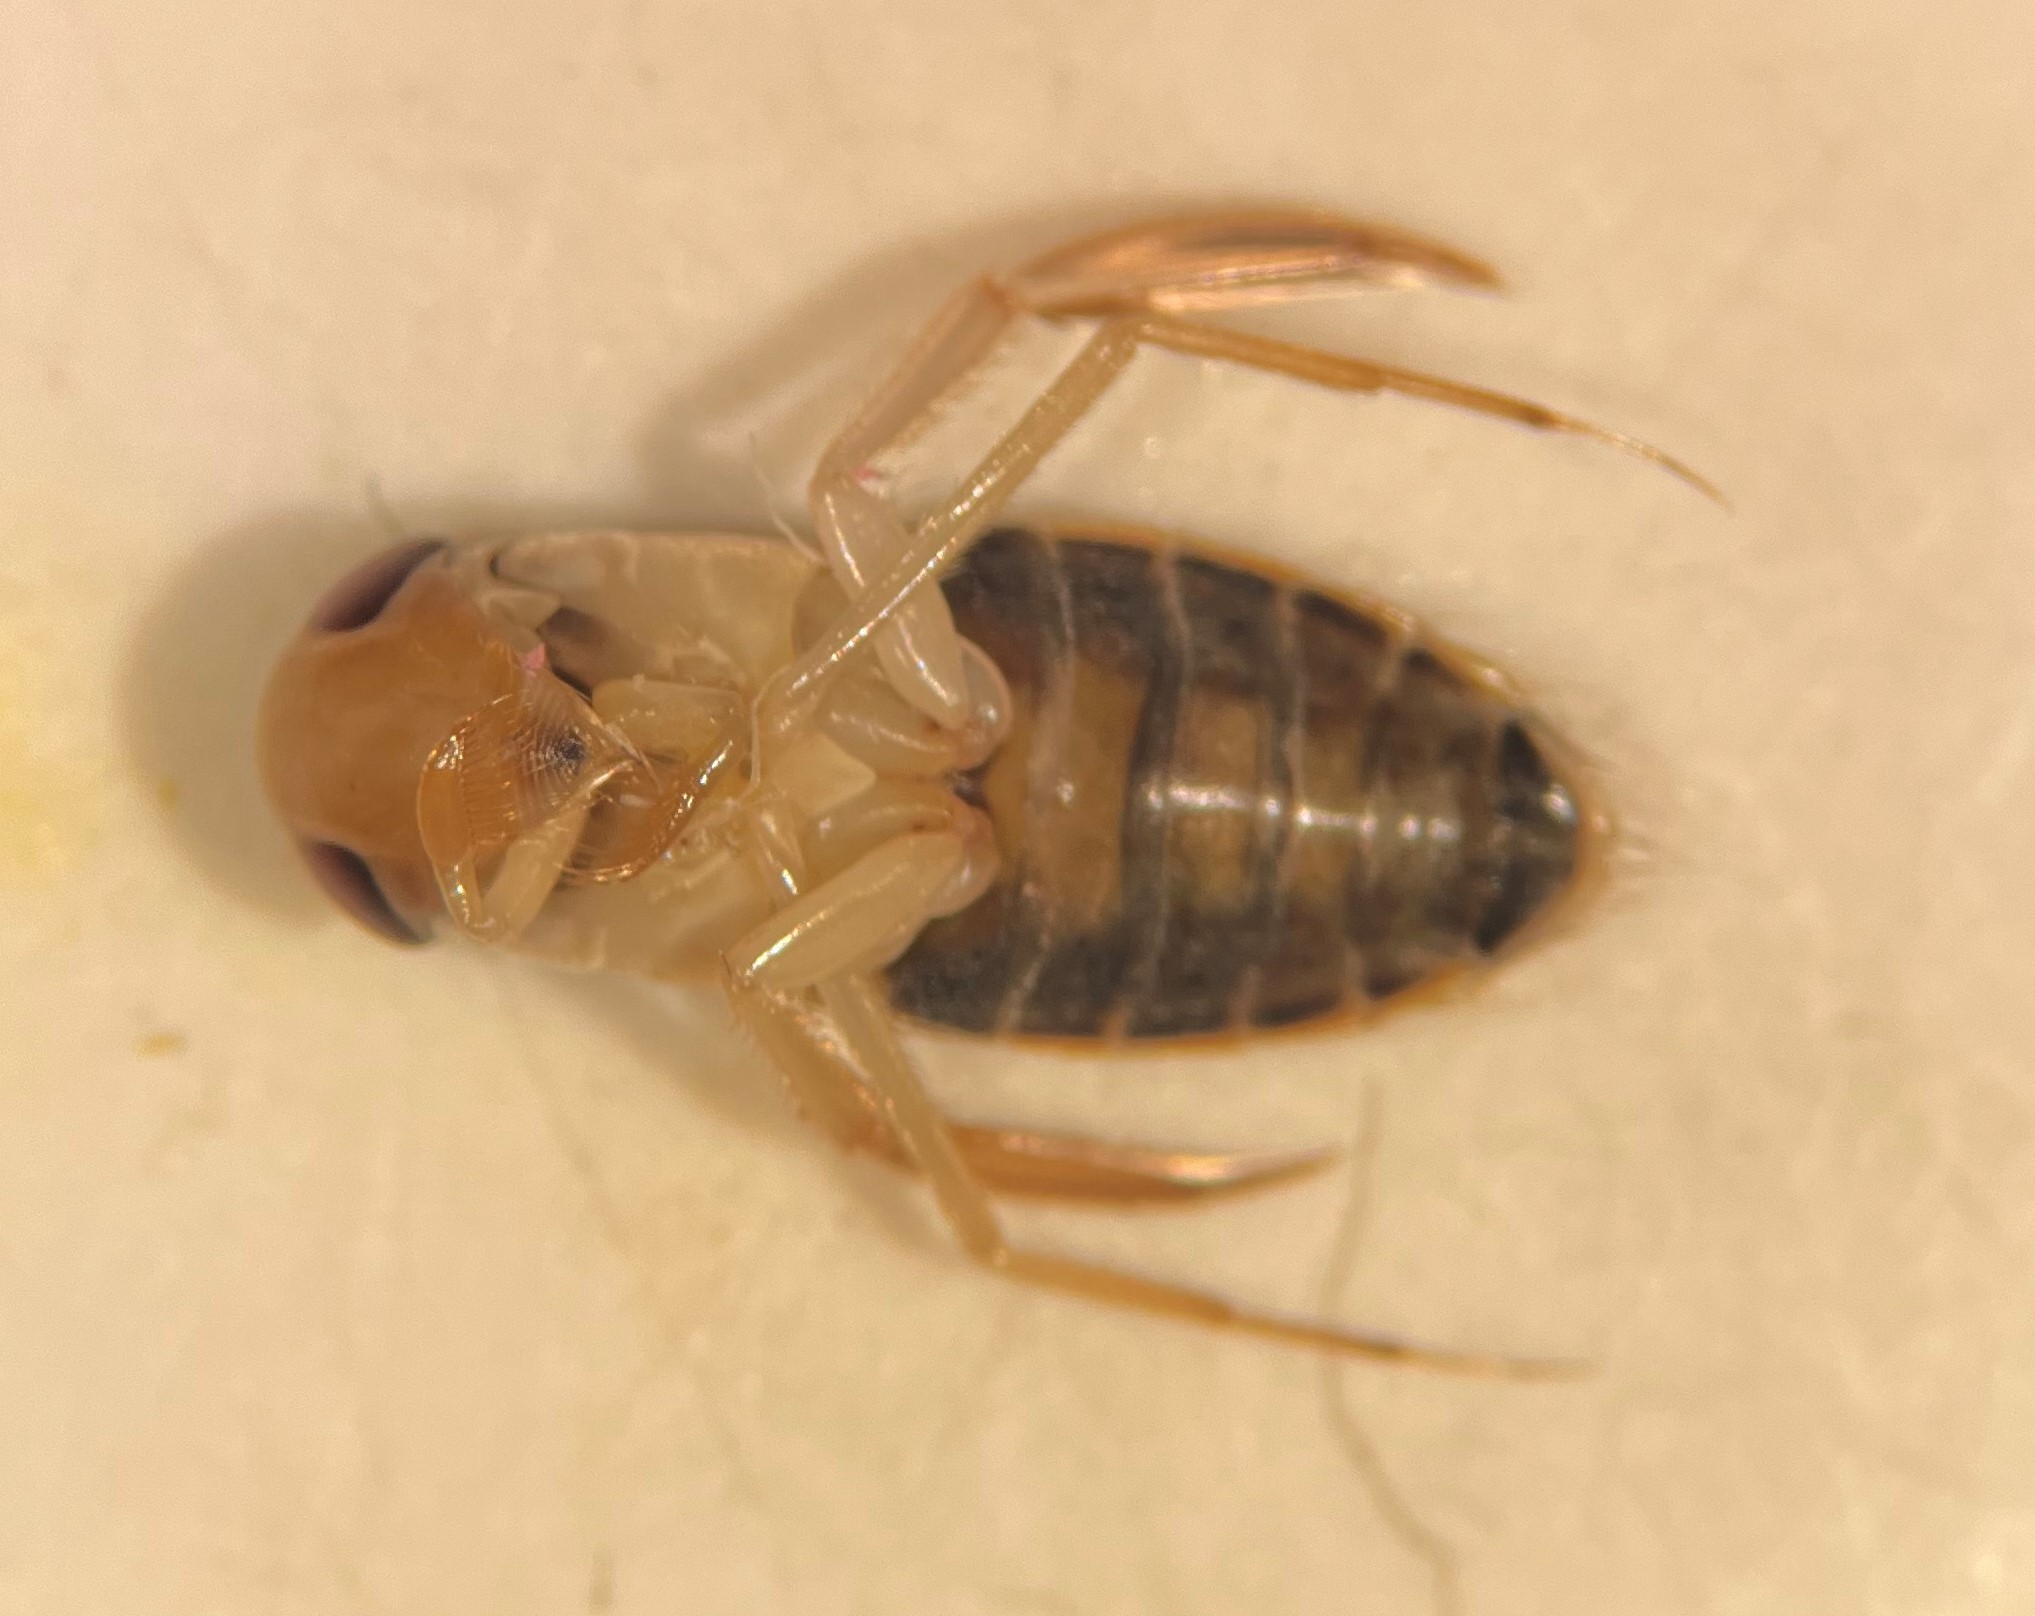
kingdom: Animalia
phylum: Arthropoda
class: Insecta
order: Hemiptera
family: Corixidae
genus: Corisella
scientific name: Corisella edulis
